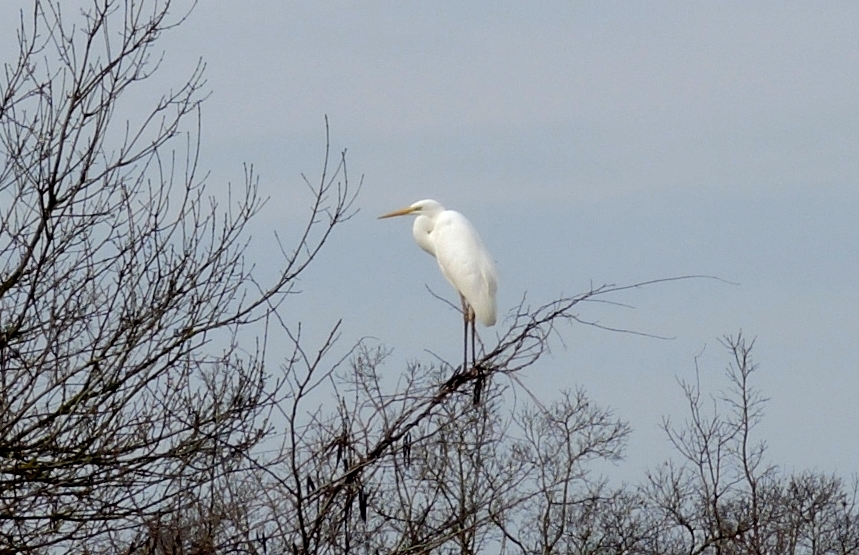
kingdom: Animalia
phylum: Chordata
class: Aves
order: Pelecaniformes
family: Ardeidae
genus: Ardea
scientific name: Ardea alba
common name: Great egret
